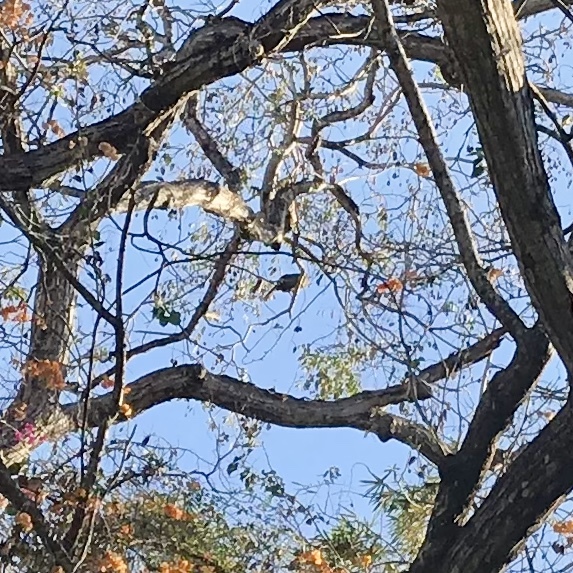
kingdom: Animalia
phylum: Chordata
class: Aves
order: Galliformes
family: Cracidae
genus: Ortalis
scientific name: Ortalis wagleri
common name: Rufous-bellied chachalaca
